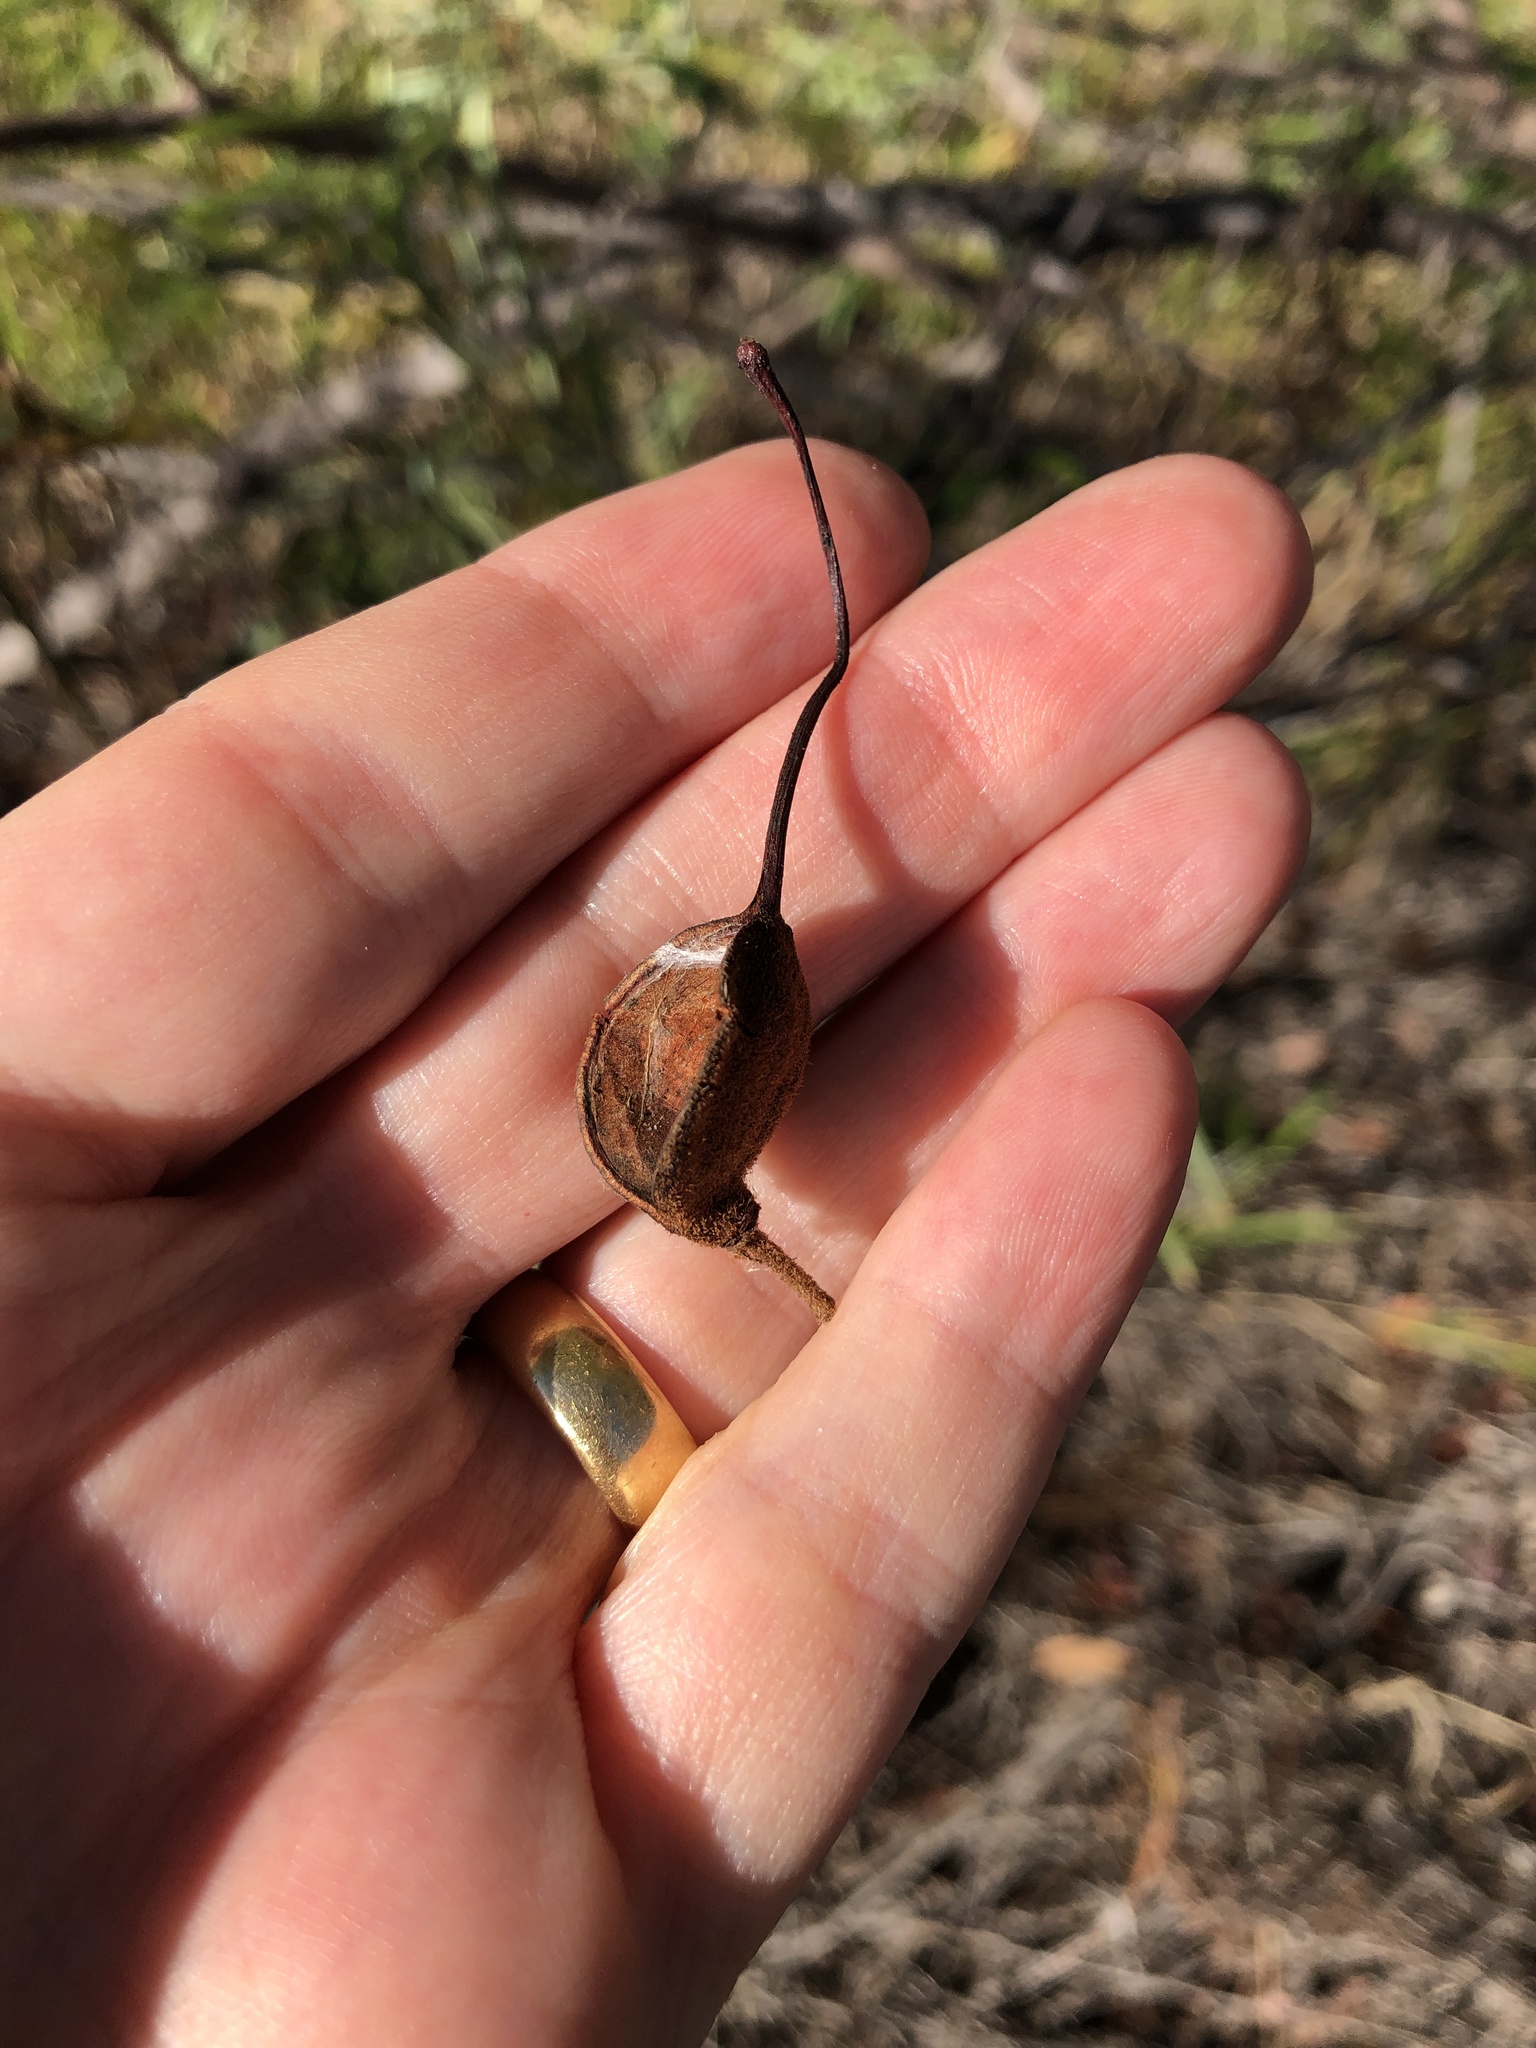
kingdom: Plantae
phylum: Tracheophyta
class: Magnoliopsida
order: Proteales
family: Proteaceae
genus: Grevillea
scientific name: Grevillea banksii
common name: Kahili flower
